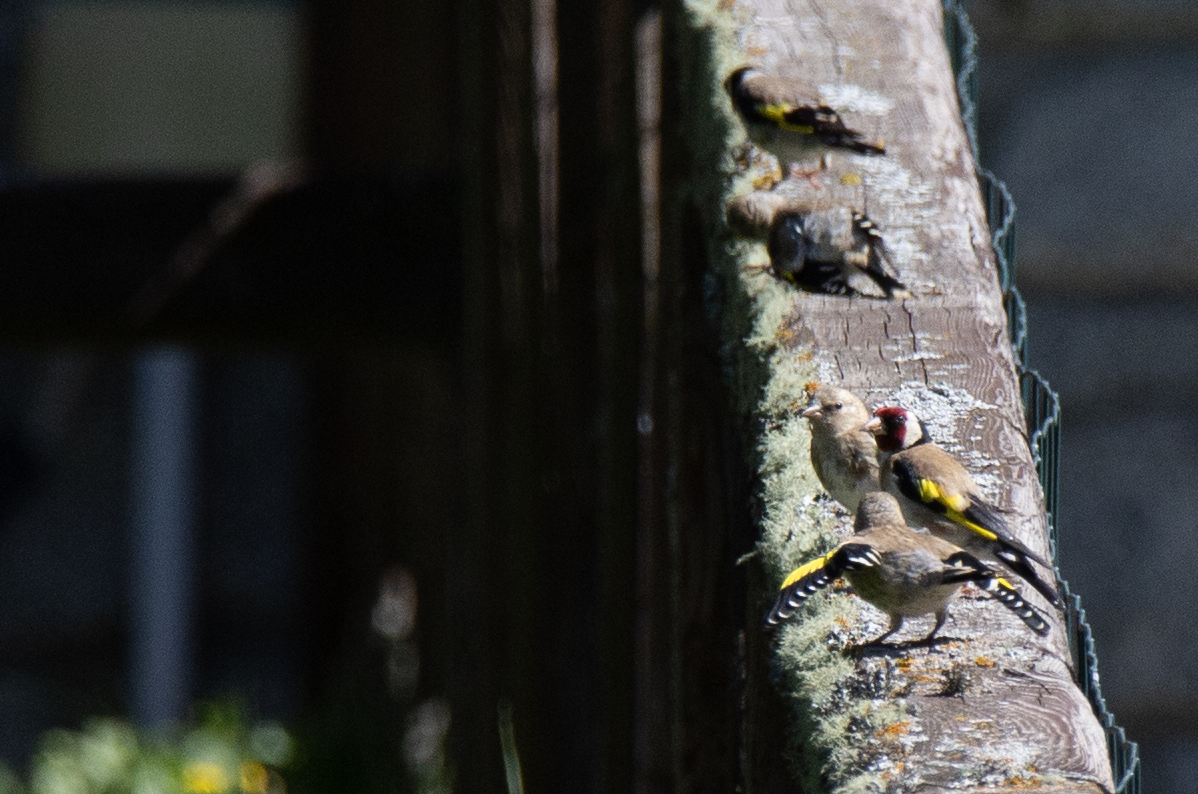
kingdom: Animalia
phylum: Chordata
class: Aves
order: Passeriformes
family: Fringillidae
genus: Carduelis
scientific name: Carduelis carduelis
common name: European goldfinch
